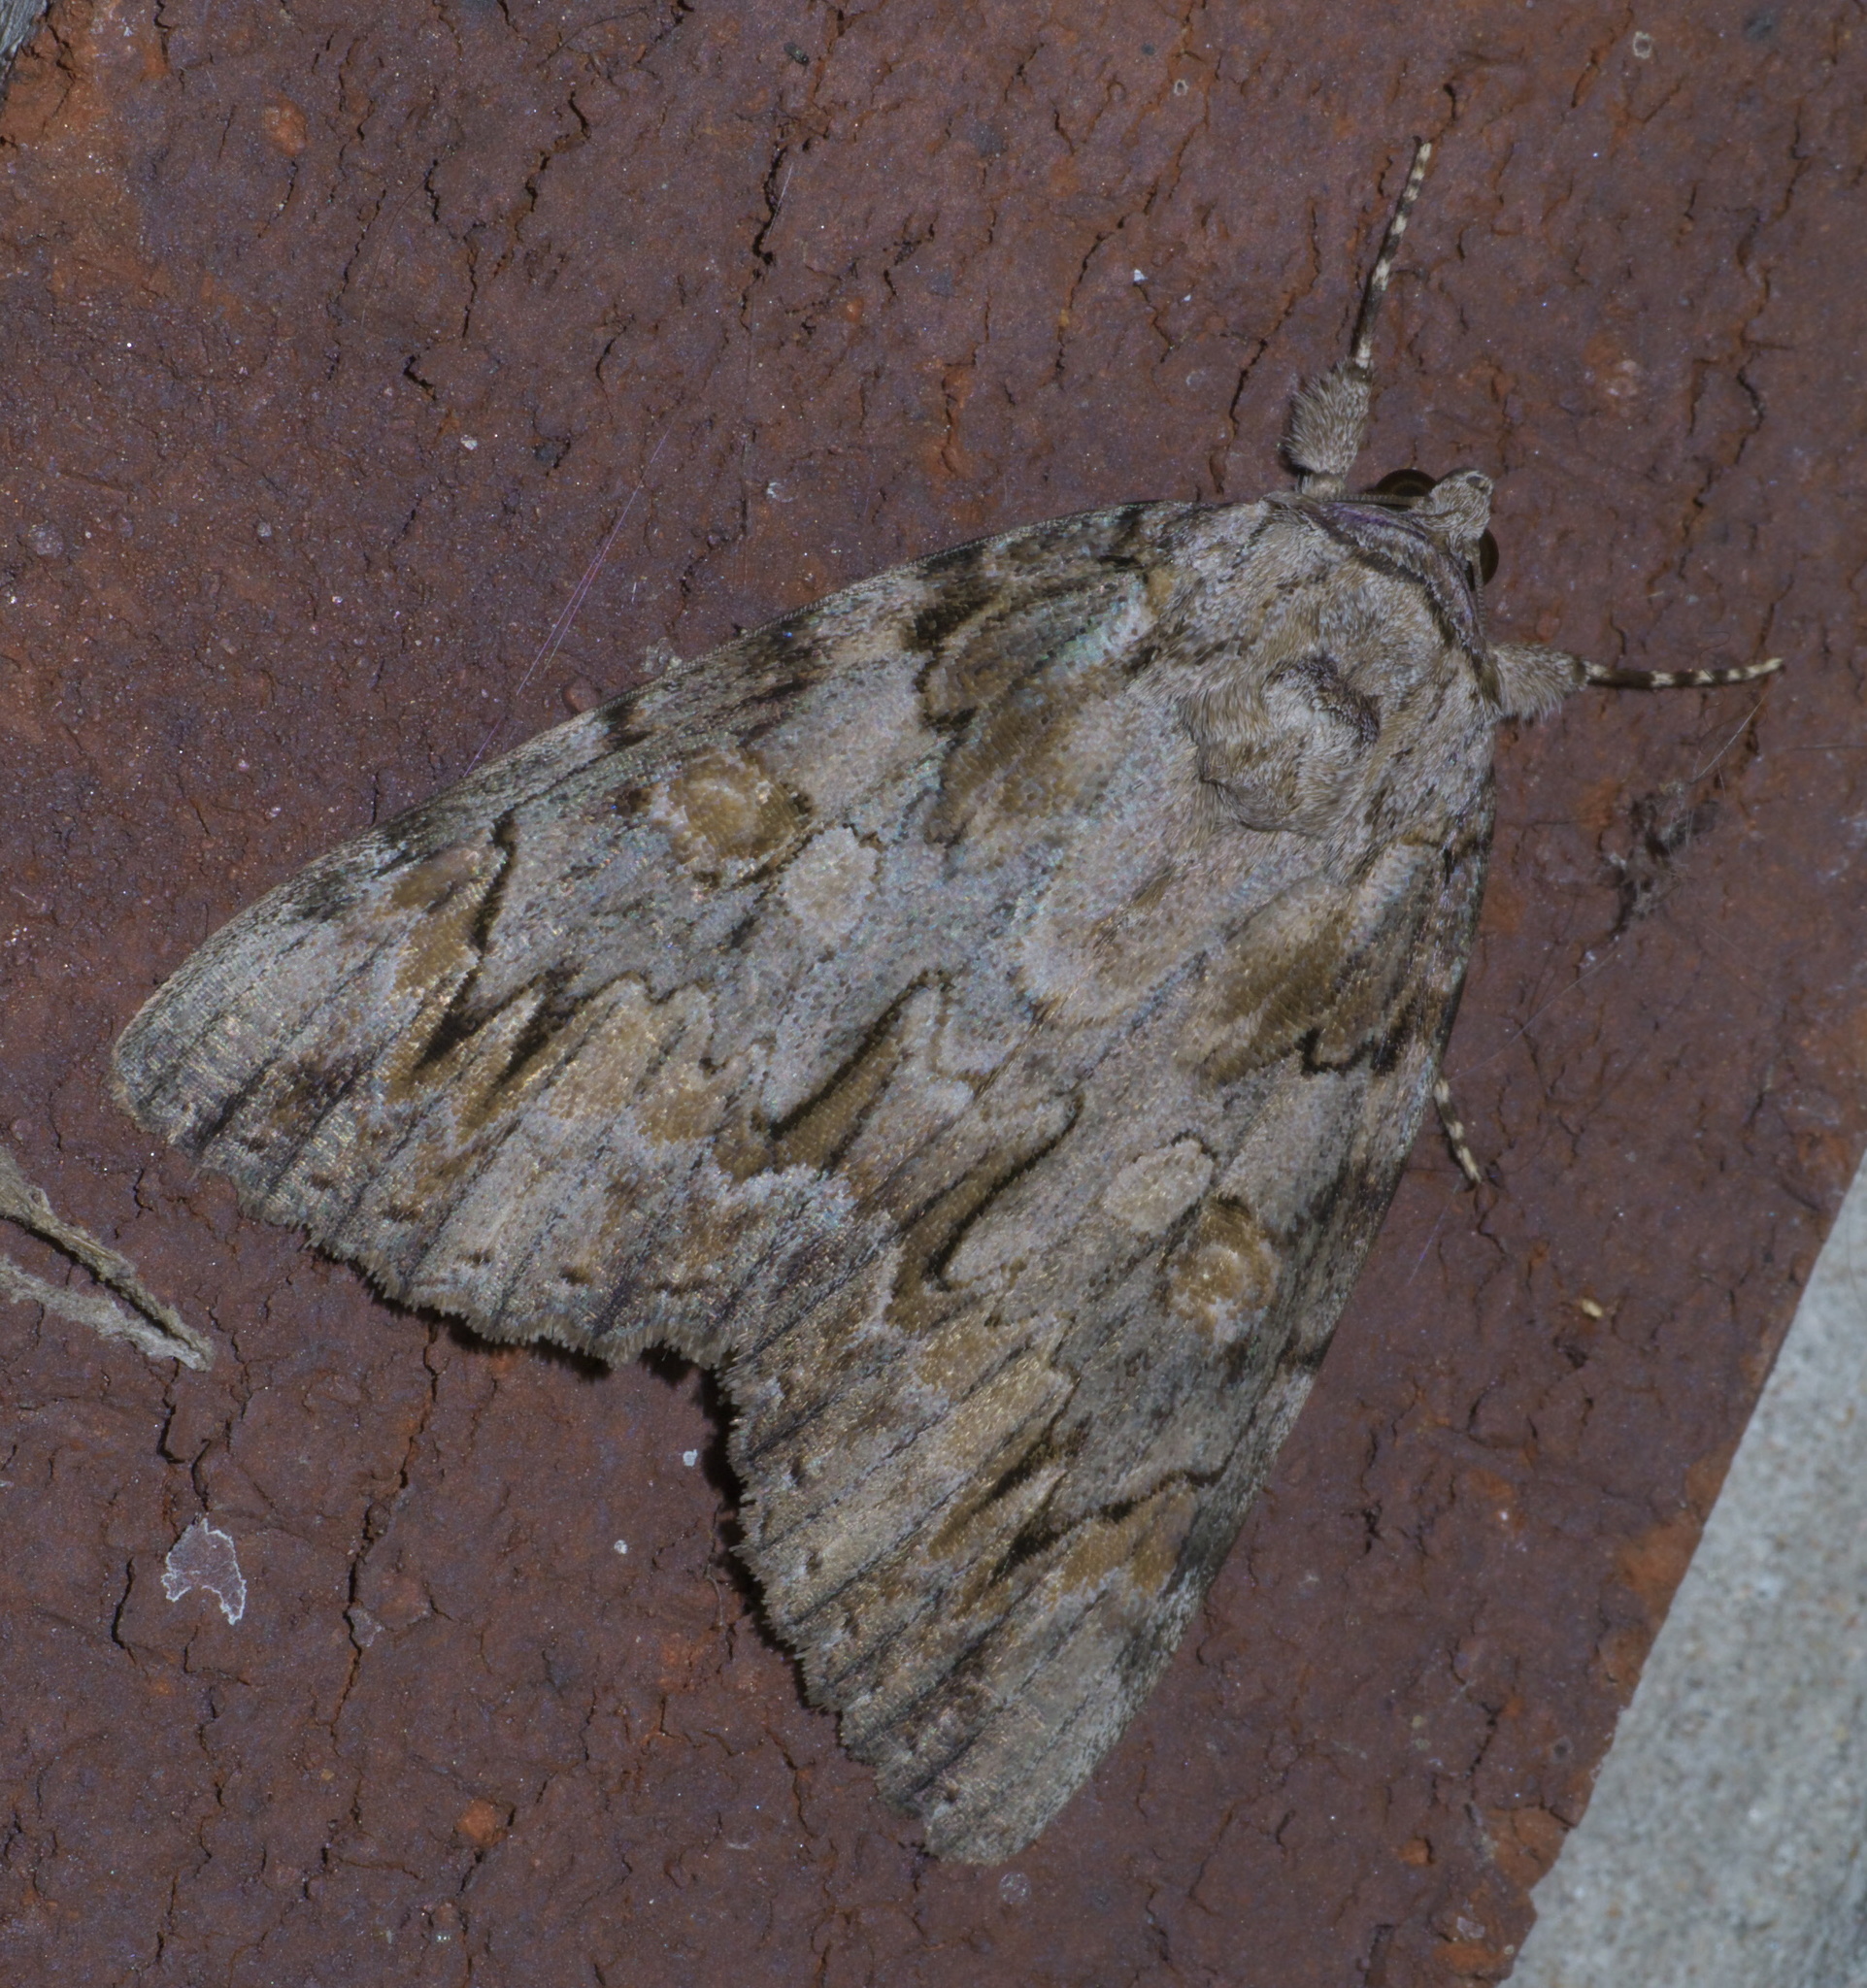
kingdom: Animalia
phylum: Arthropoda
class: Insecta
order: Lepidoptera
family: Erebidae
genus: Catocala
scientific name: Catocala neogama
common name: Bride underwing
